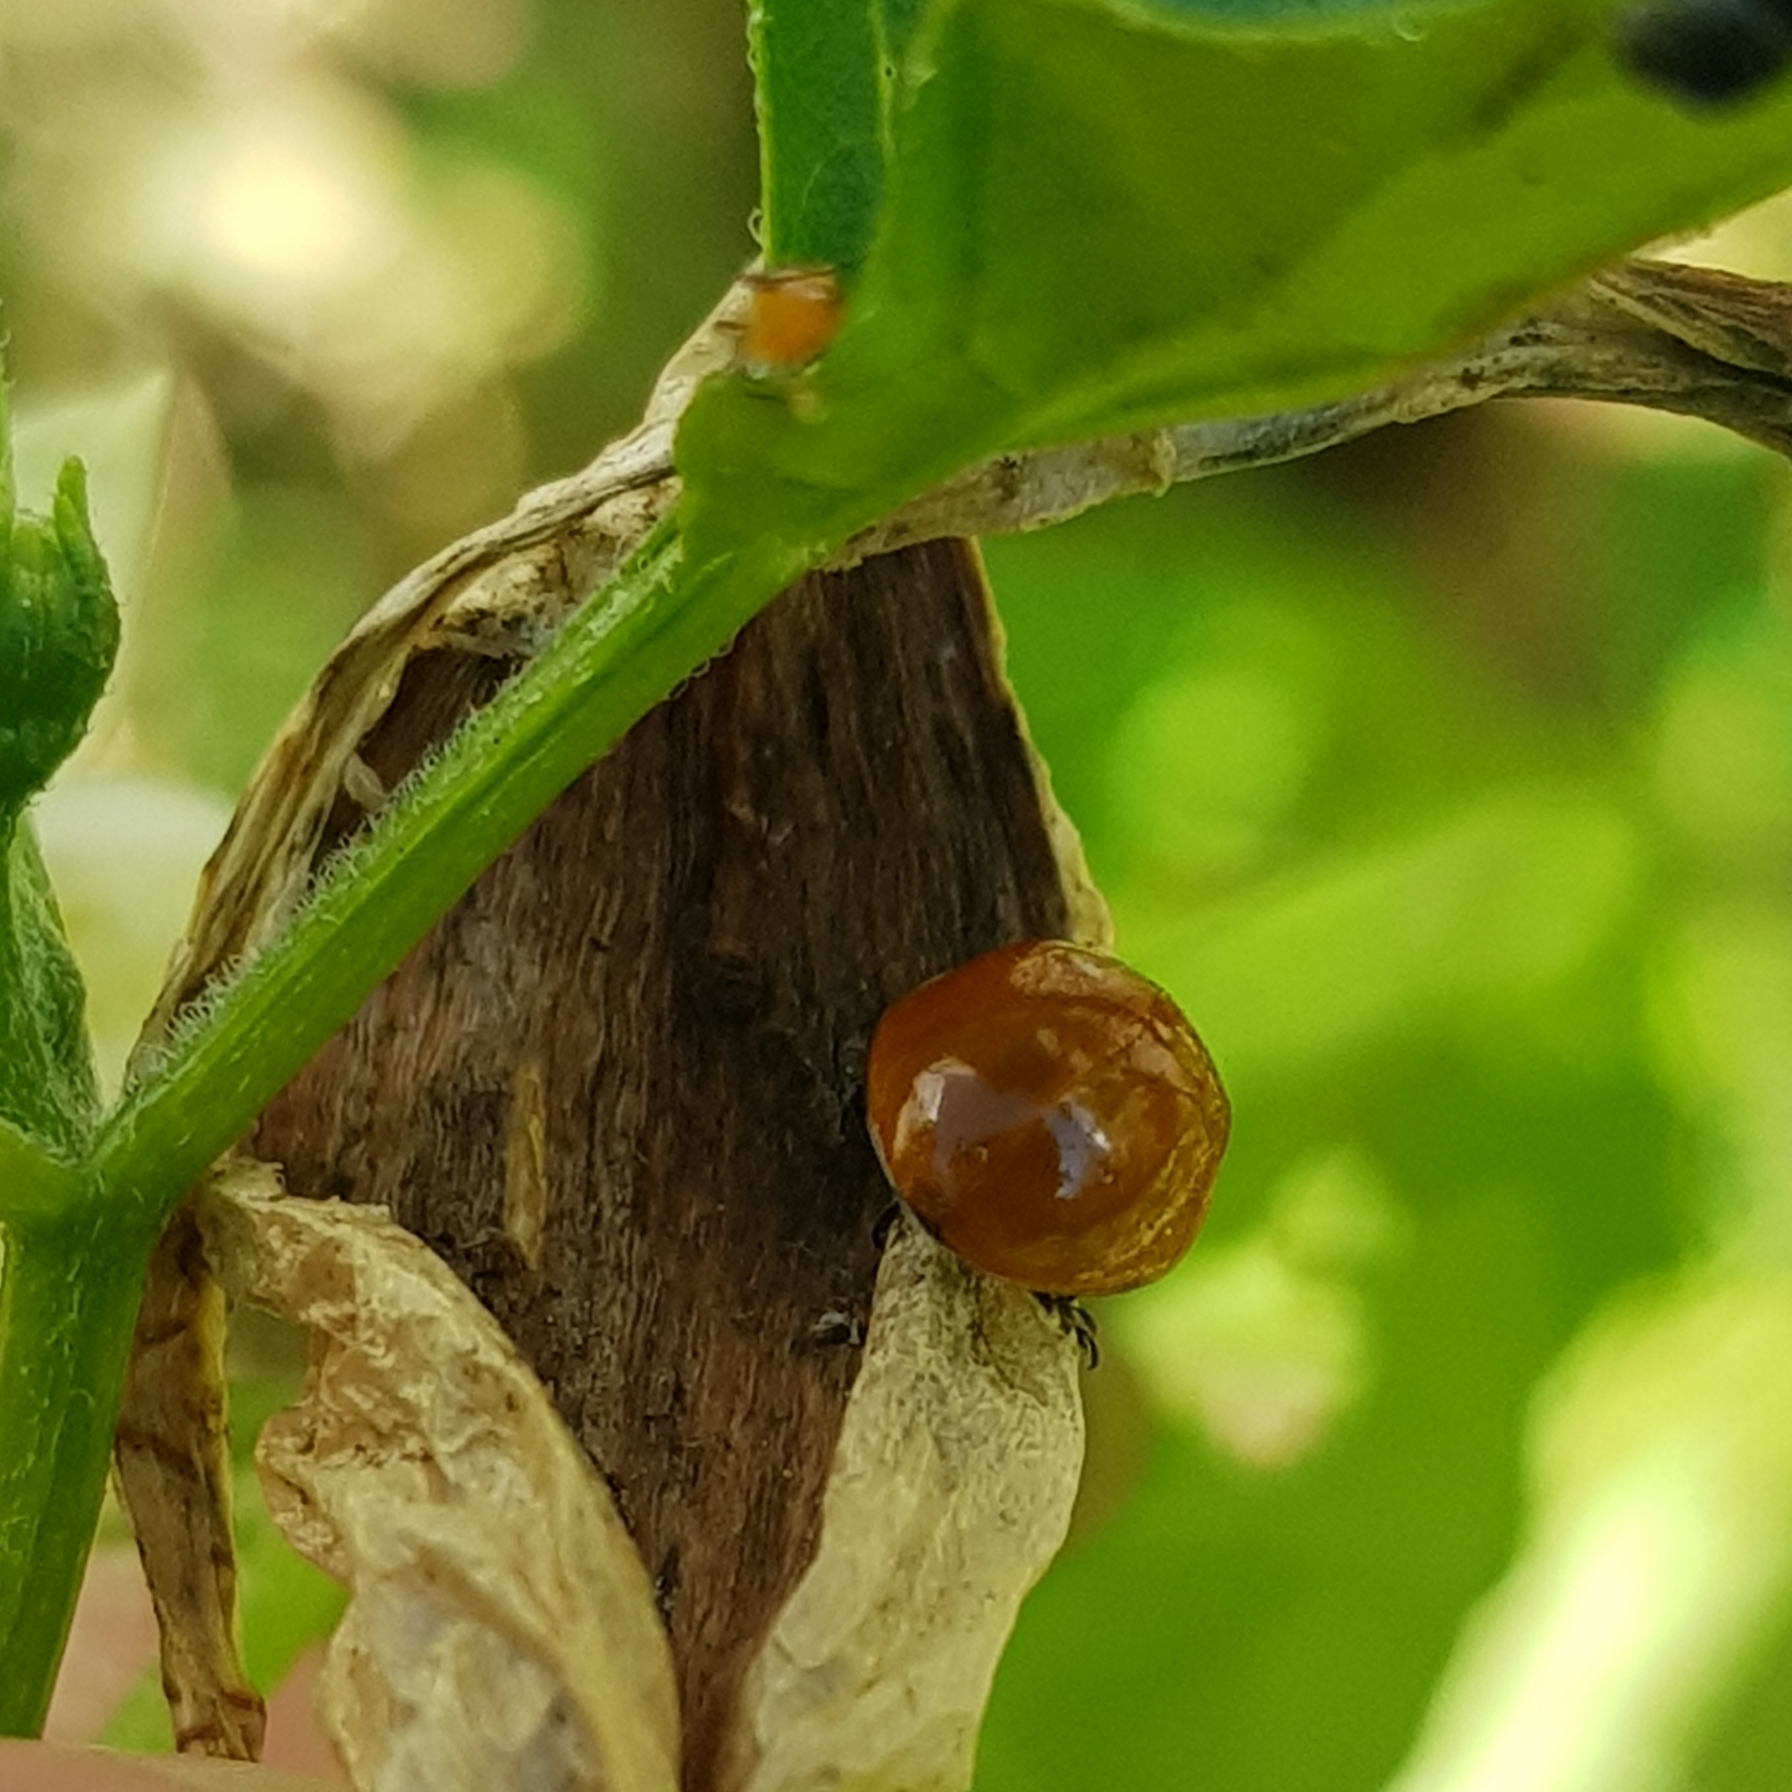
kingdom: Animalia
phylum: Arthropoda
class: Insecta
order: Coleoptera
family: Coccinellidae
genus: Cycloneda
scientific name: Cycloneda sanguinea
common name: Ladybird beetle
